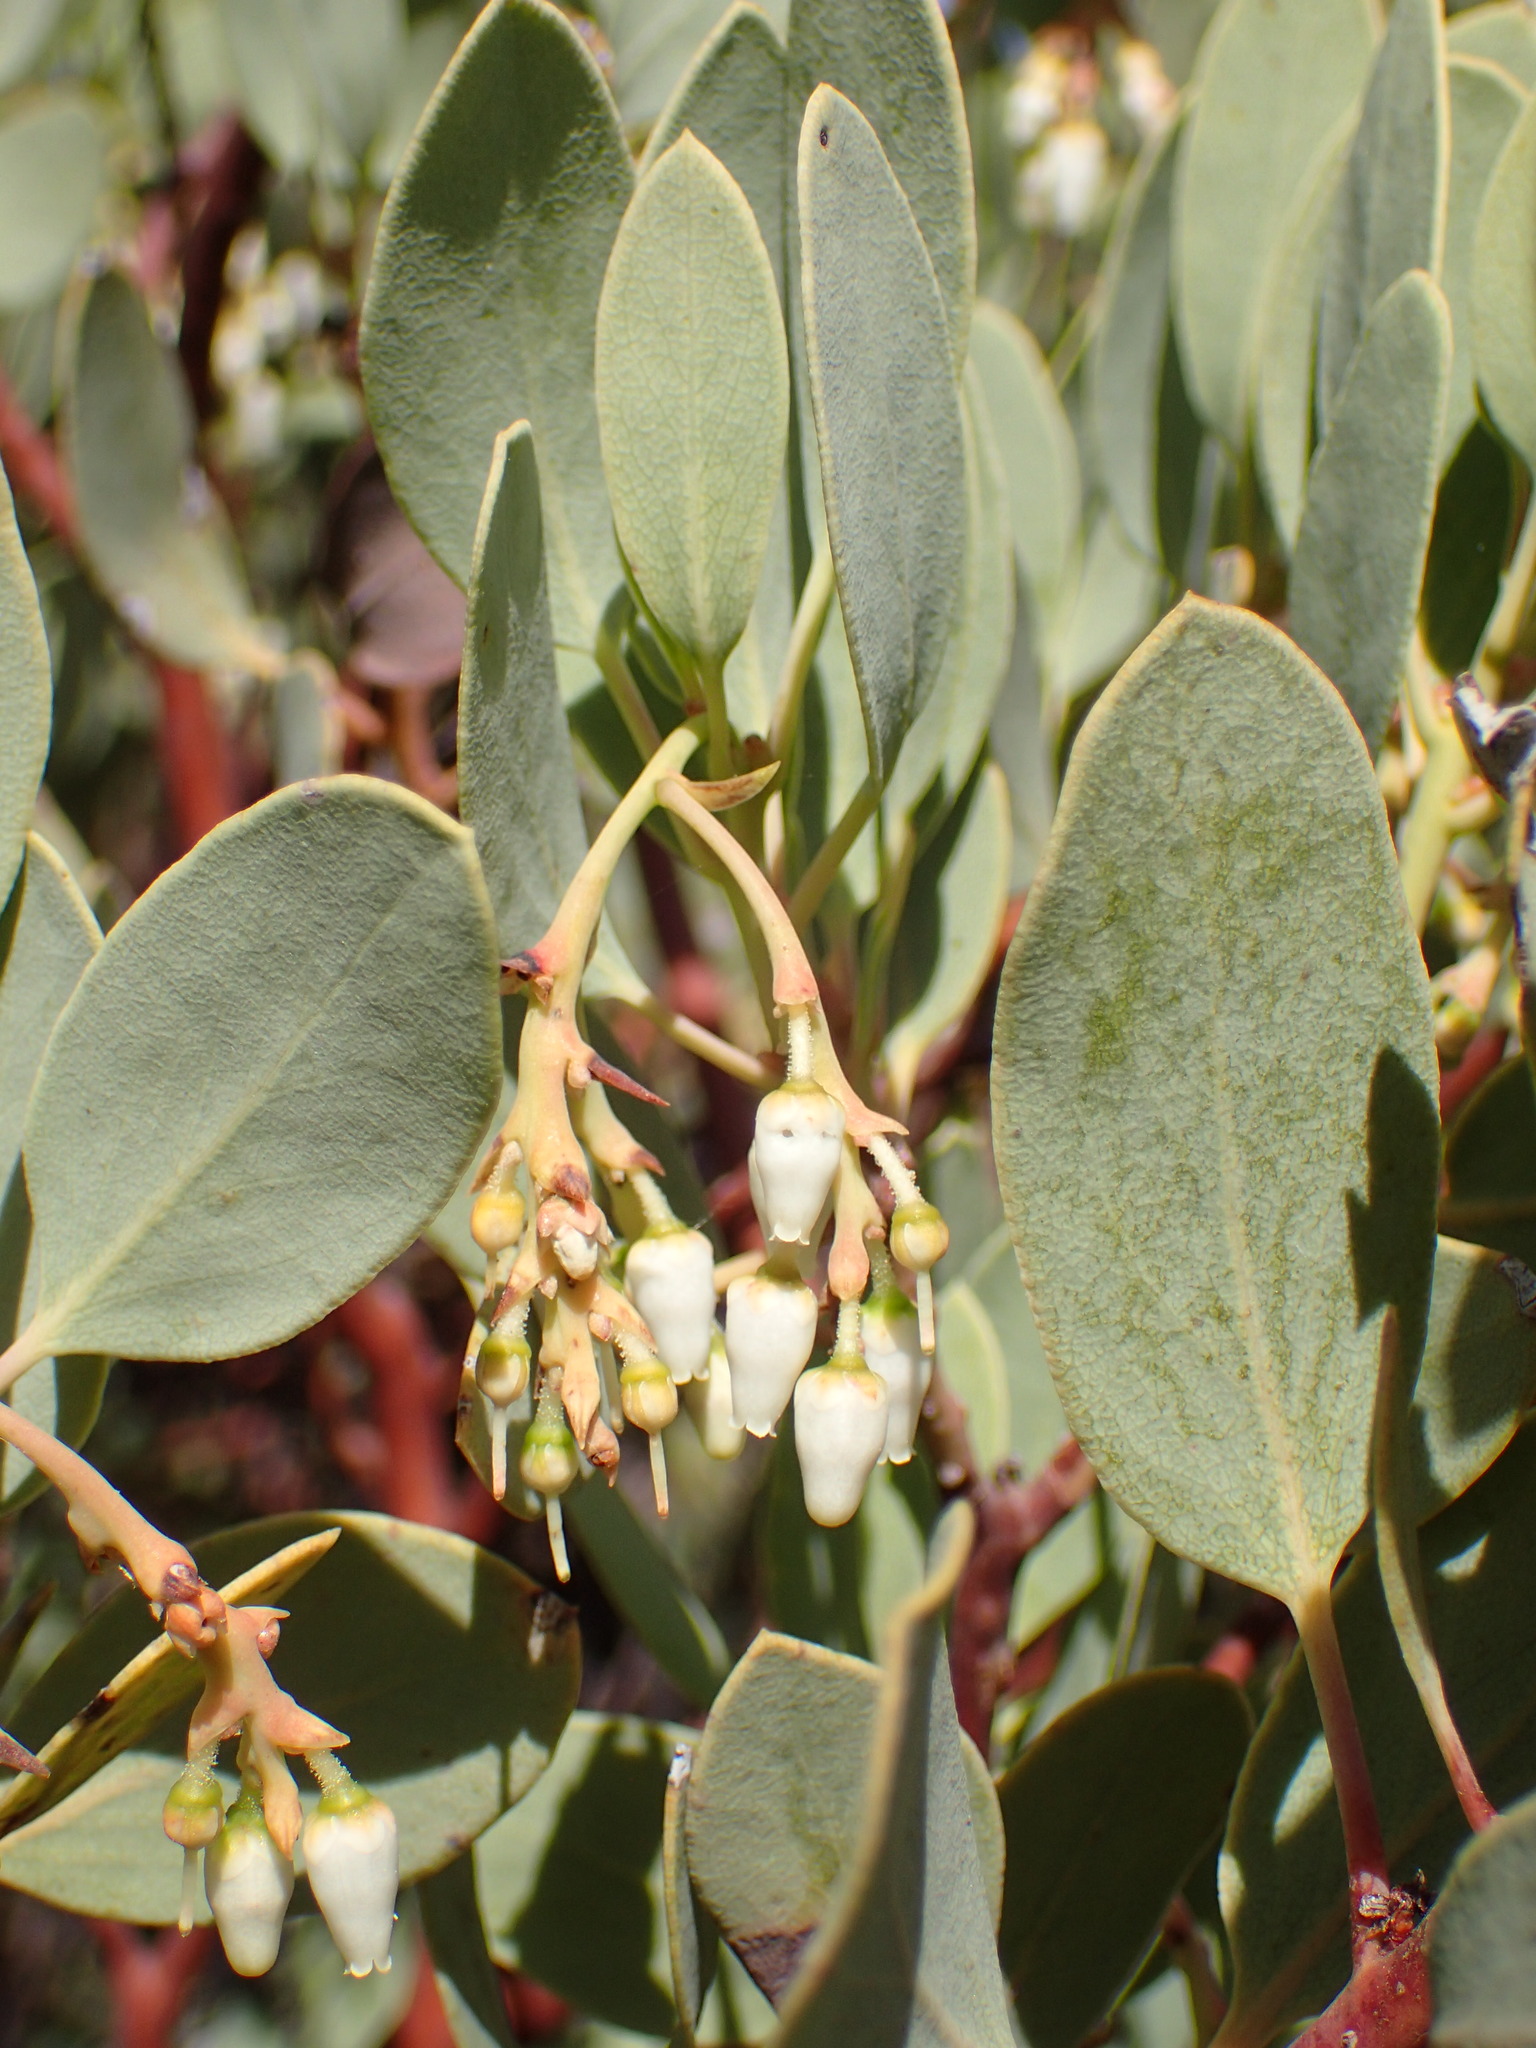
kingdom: Plantae
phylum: Tracheophyta
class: Magnoliopsida
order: Ericales
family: Ericaceae
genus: Arctostaphylos
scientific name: Arctostaphylos glauca
